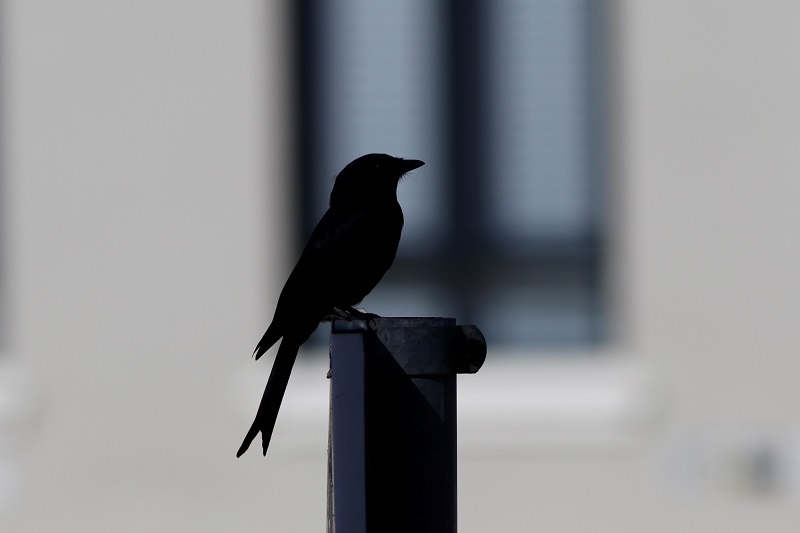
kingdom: Animalia
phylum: Chordata
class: Aves
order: Passeriformes
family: Dicruridae
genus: Dicrurus
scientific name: Dicrurus adsimilis
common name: Fork-tailed drongo
